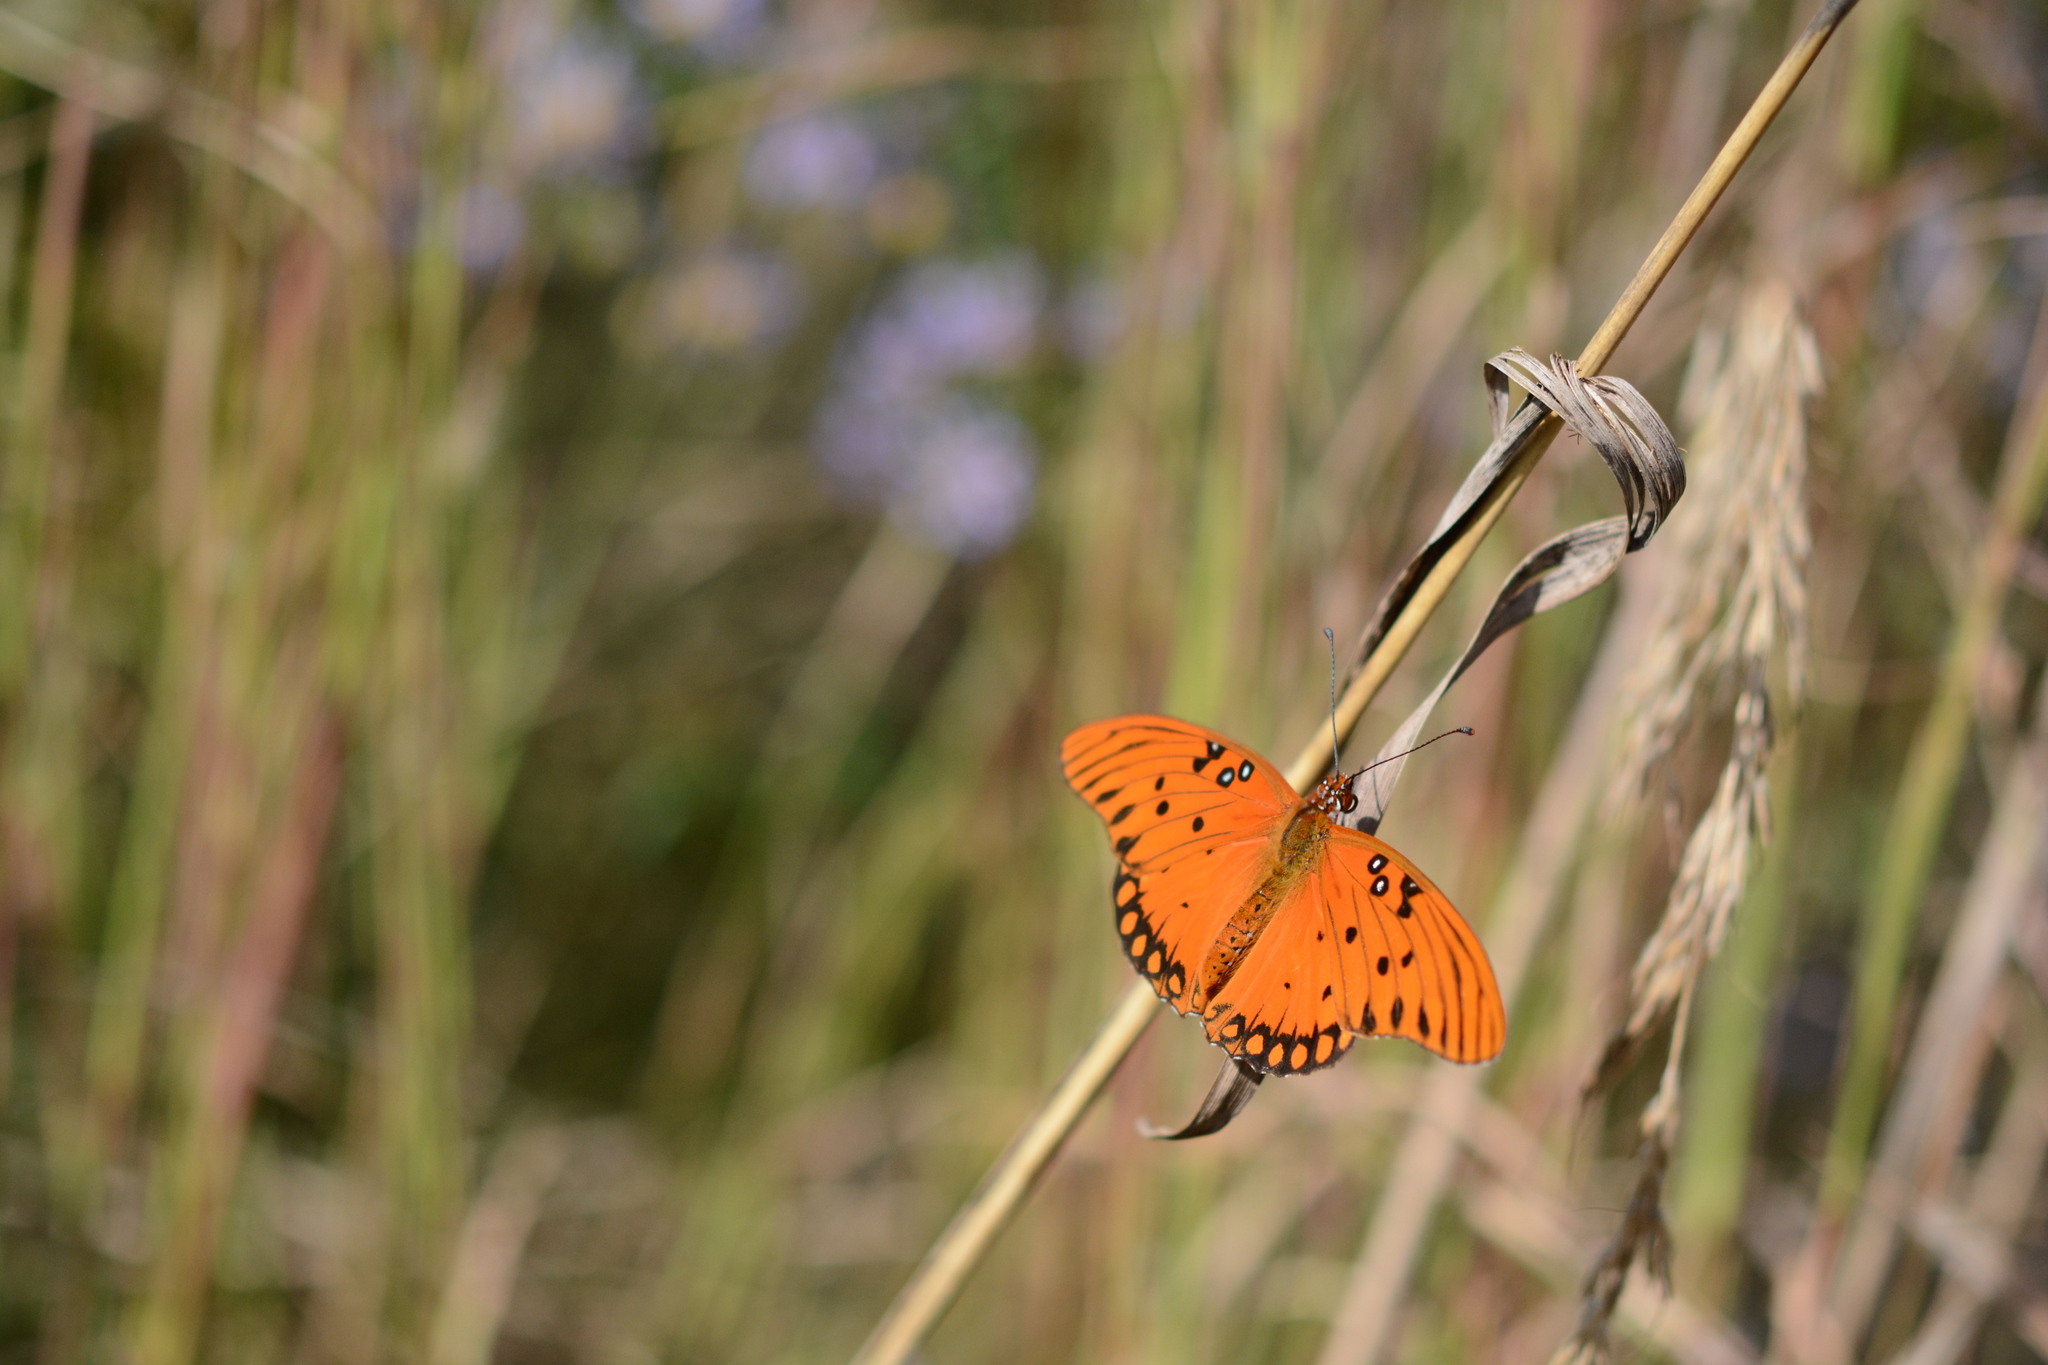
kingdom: Animalia
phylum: Arthropoda
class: Insecta
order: Lepidoptera
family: Nymphalidae
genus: Dione
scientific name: Dione vanillae
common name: Gulf fritillary
